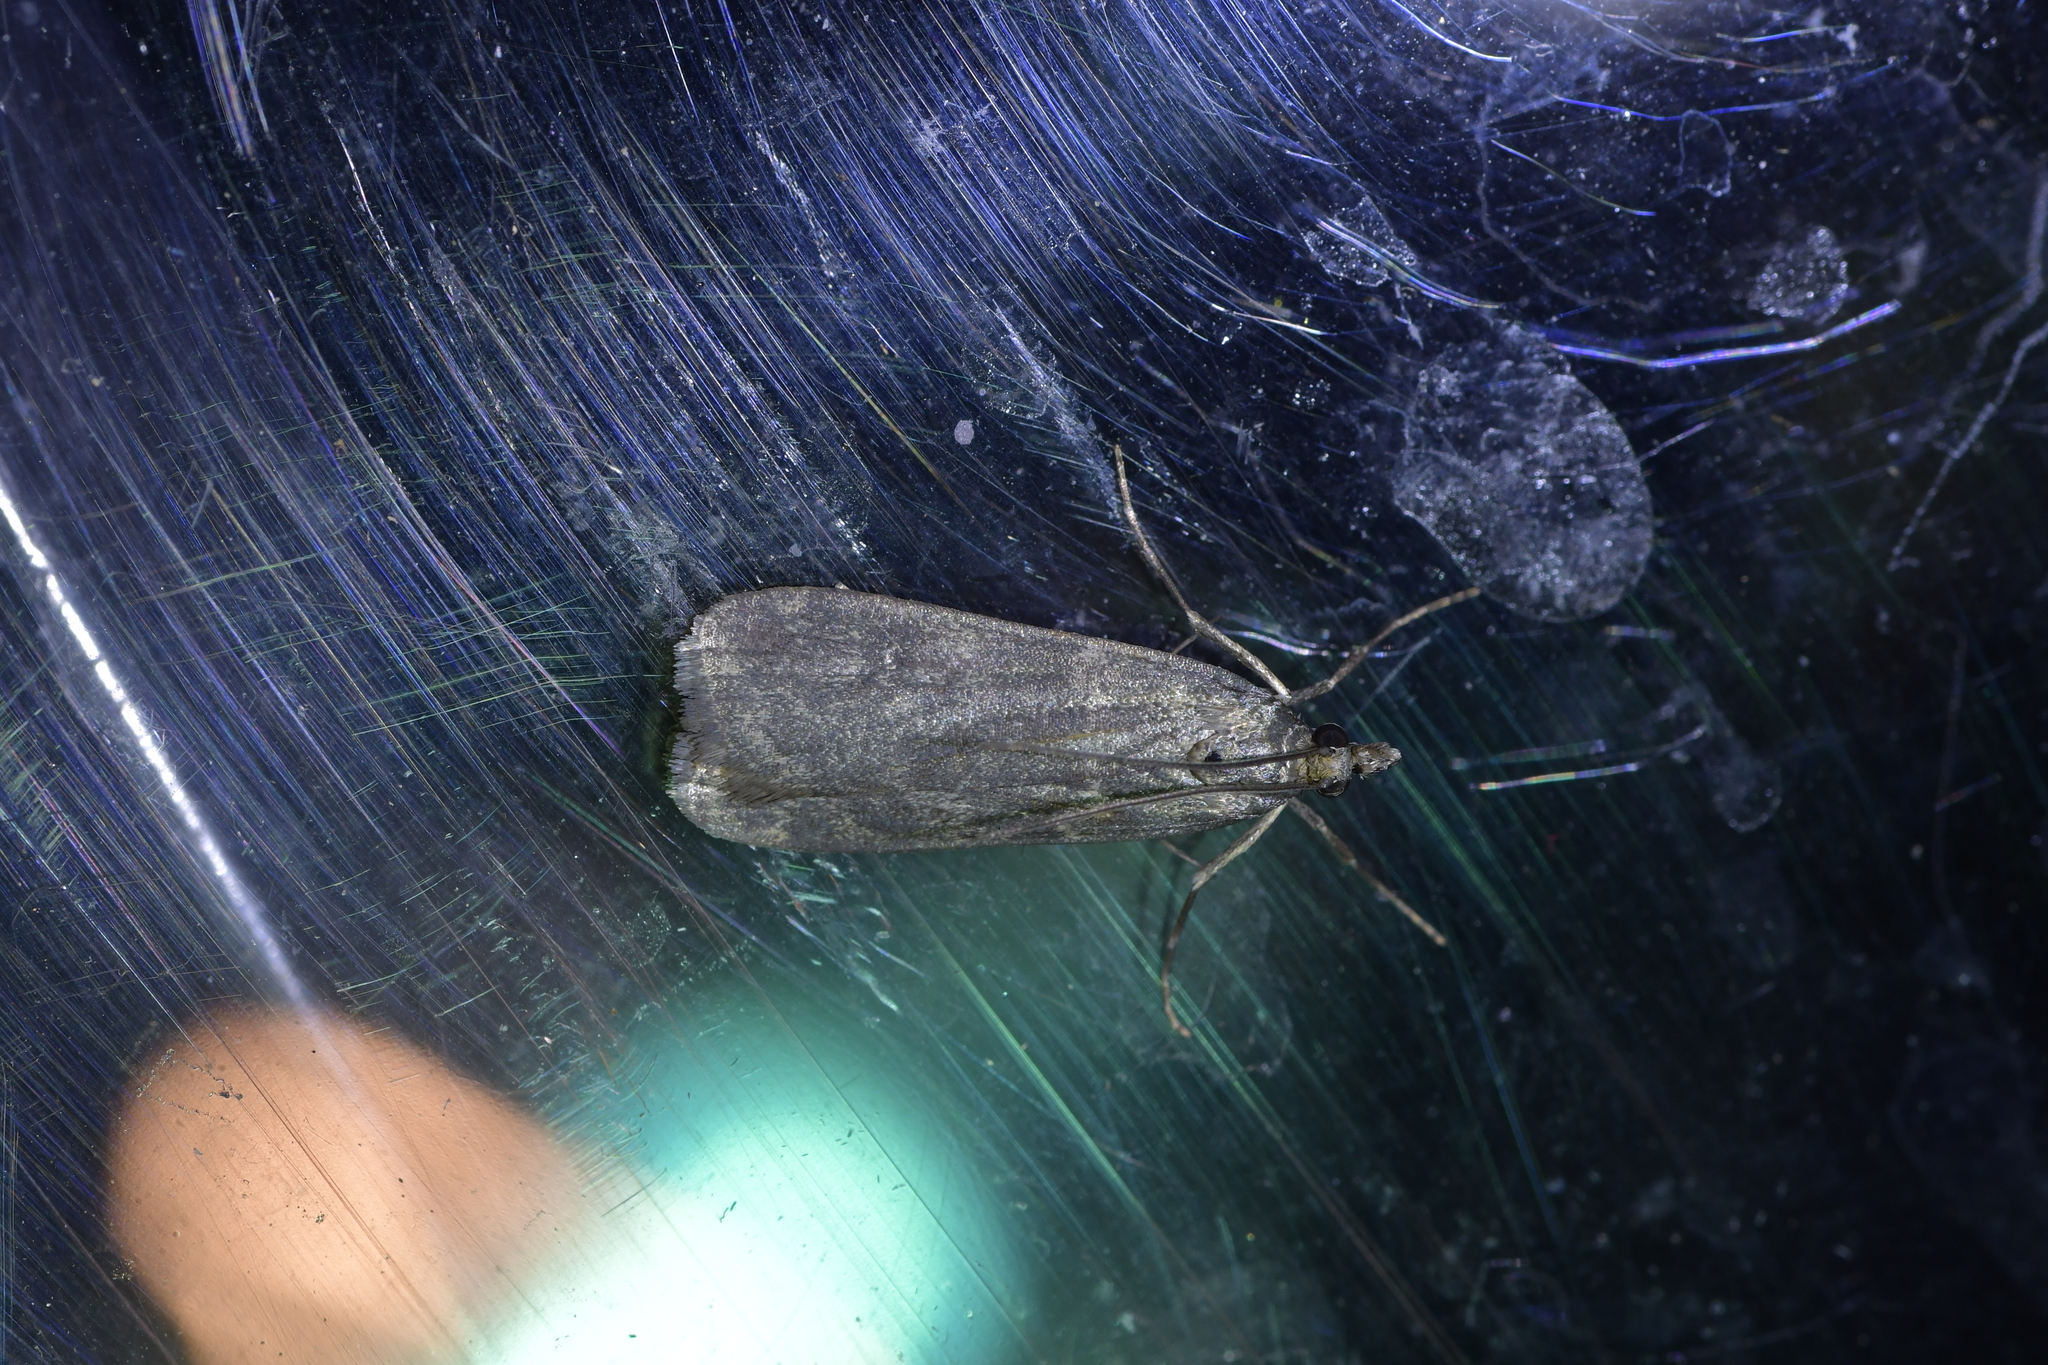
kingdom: Animalia
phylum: Arthropoda
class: Insecta
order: Lepidoptera
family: Crambidae
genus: Eudonia
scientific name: Eudonia cataxesta
